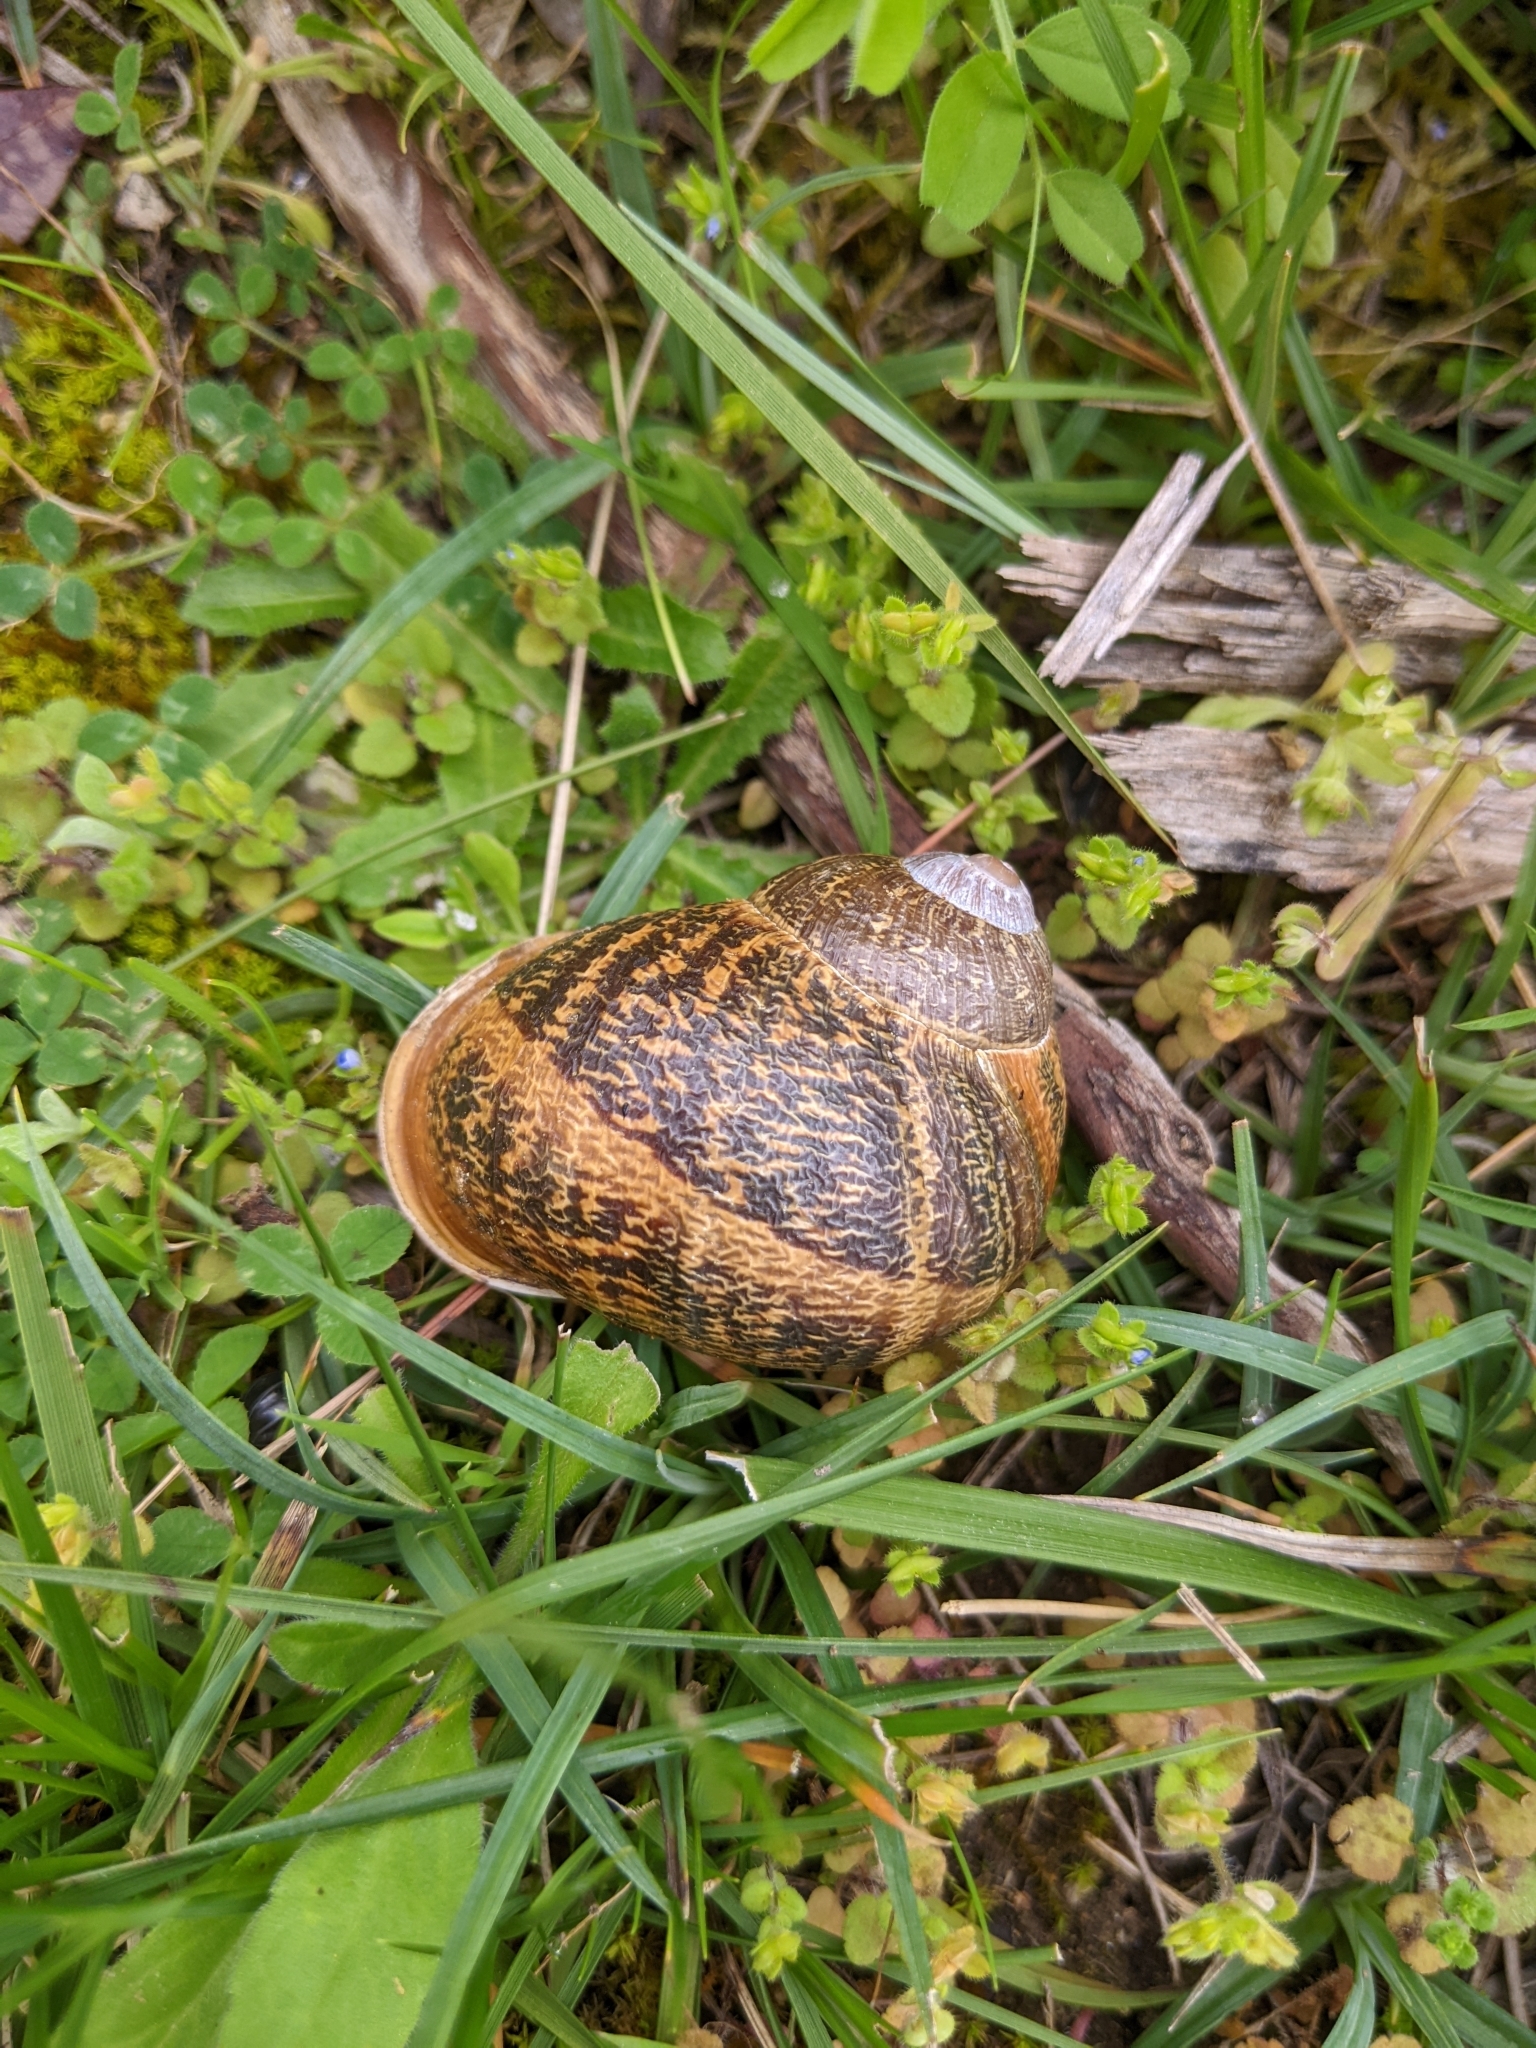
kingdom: Animalia
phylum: Mollusca
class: Gastropoda
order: Stylommatophora
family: Helicidae
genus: Cornu
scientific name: Cornu aspersum
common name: Brown garden snail
